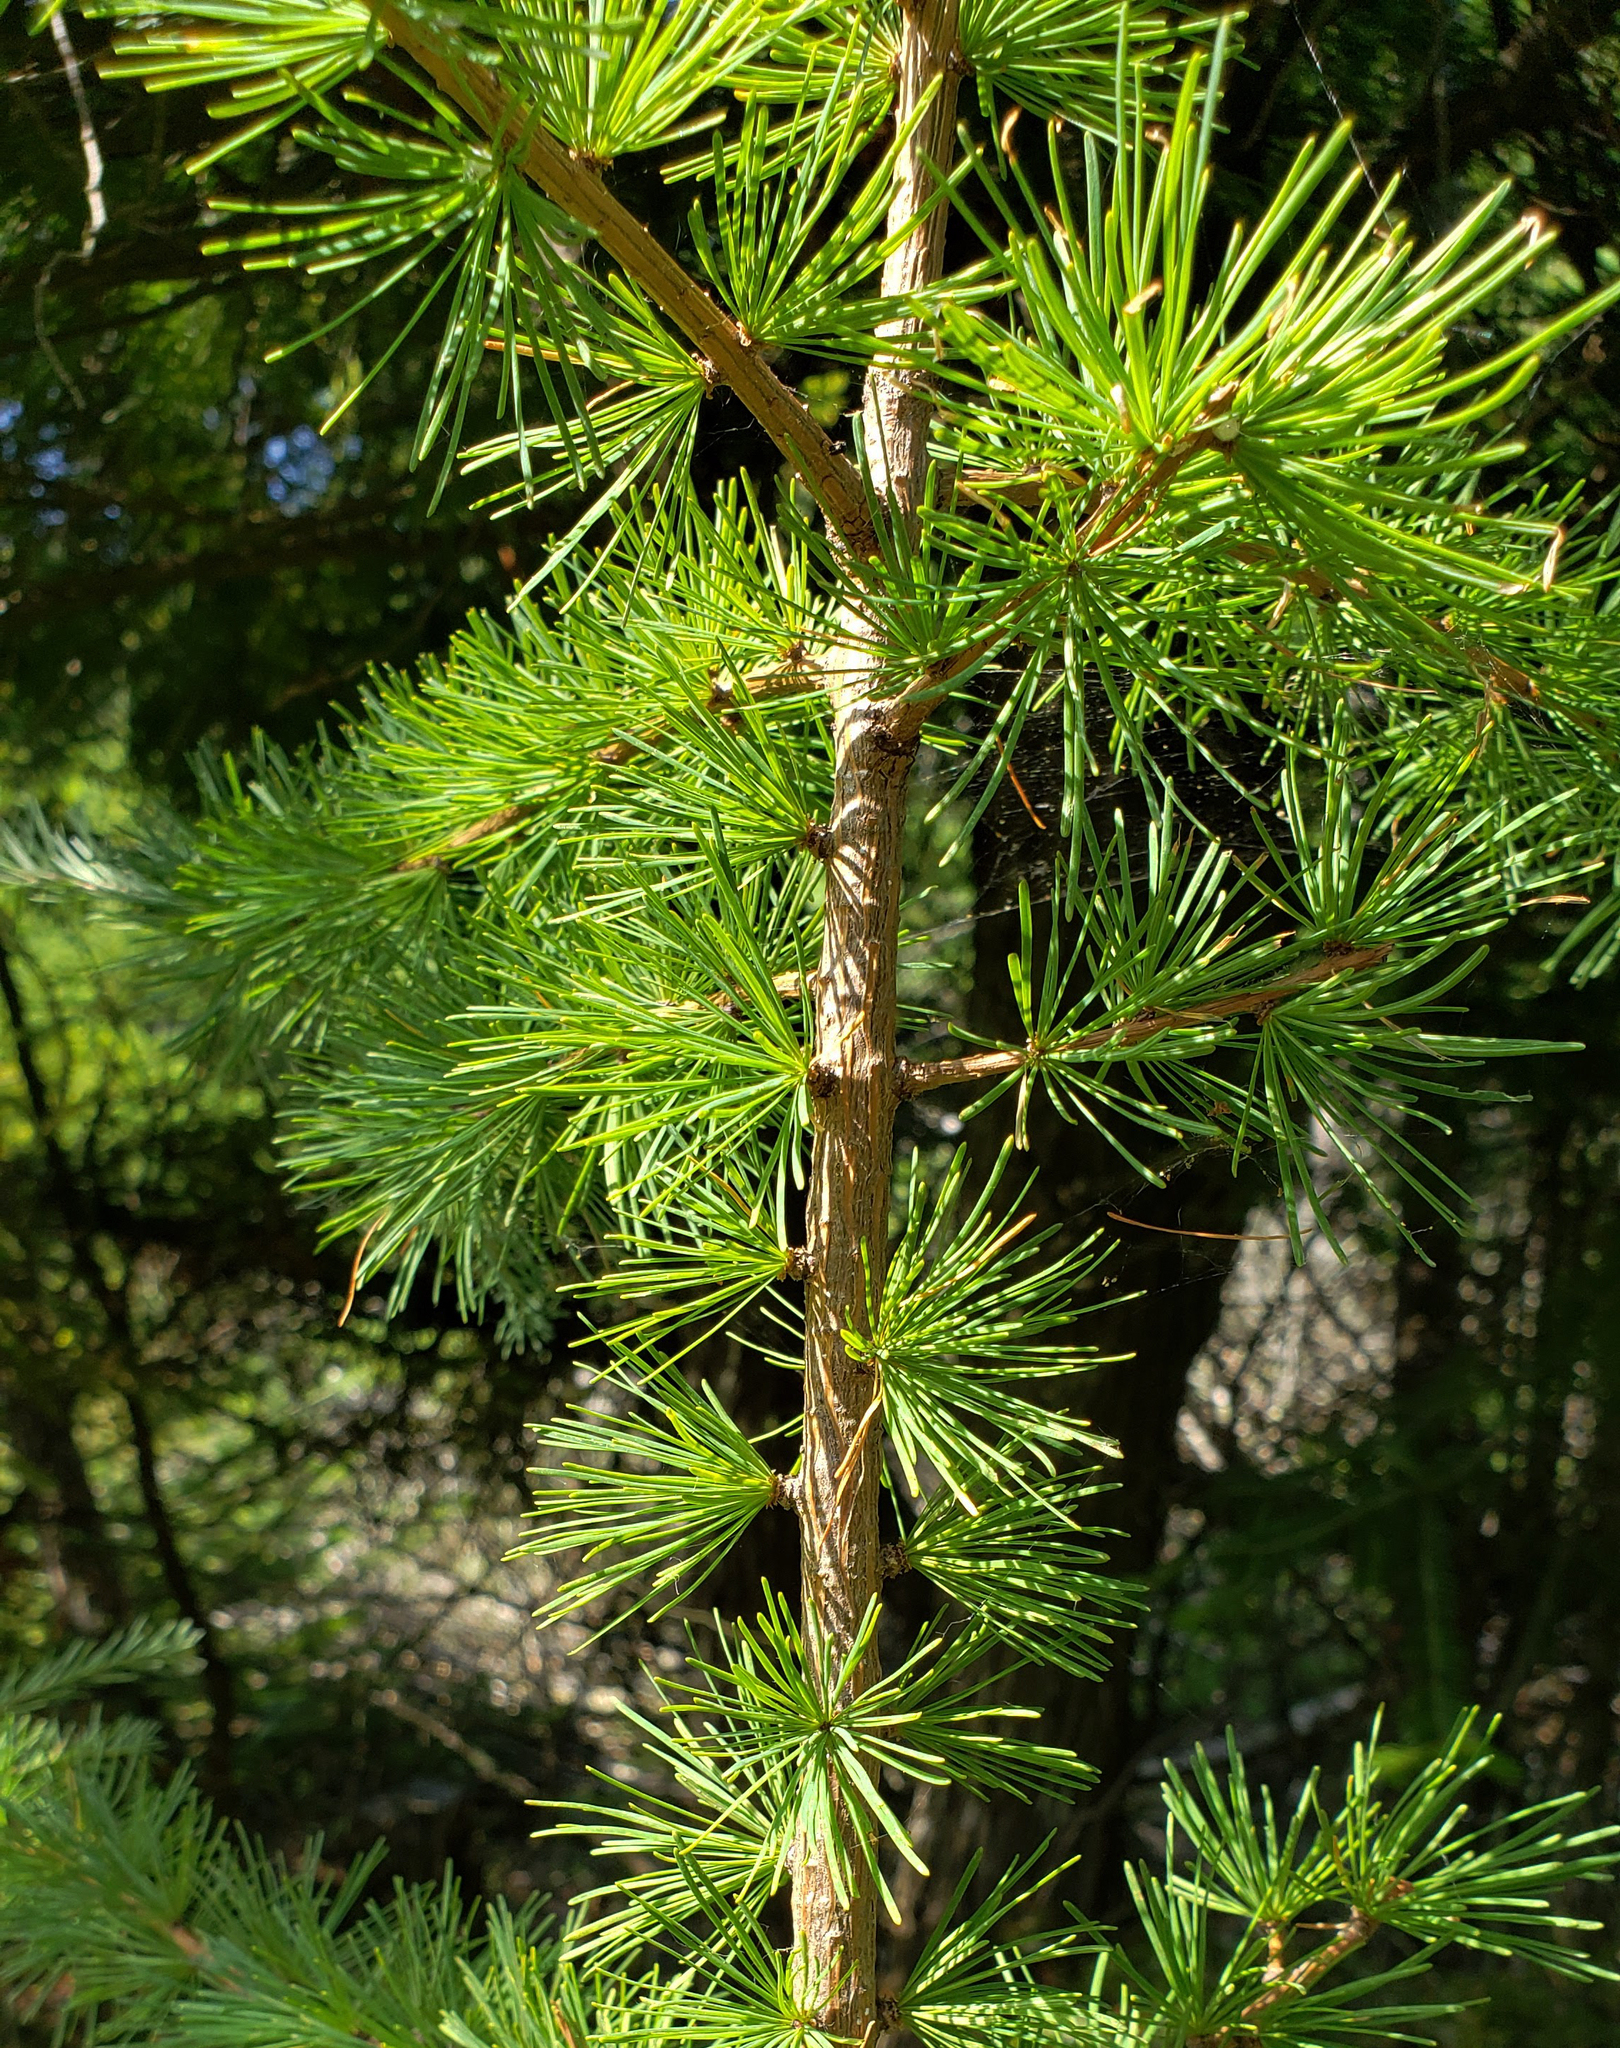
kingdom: Plantae
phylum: Tracheophyta
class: Pinopsida
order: Pinales
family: Pinaceae
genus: Larix
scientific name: Larix laricina
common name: American larch
